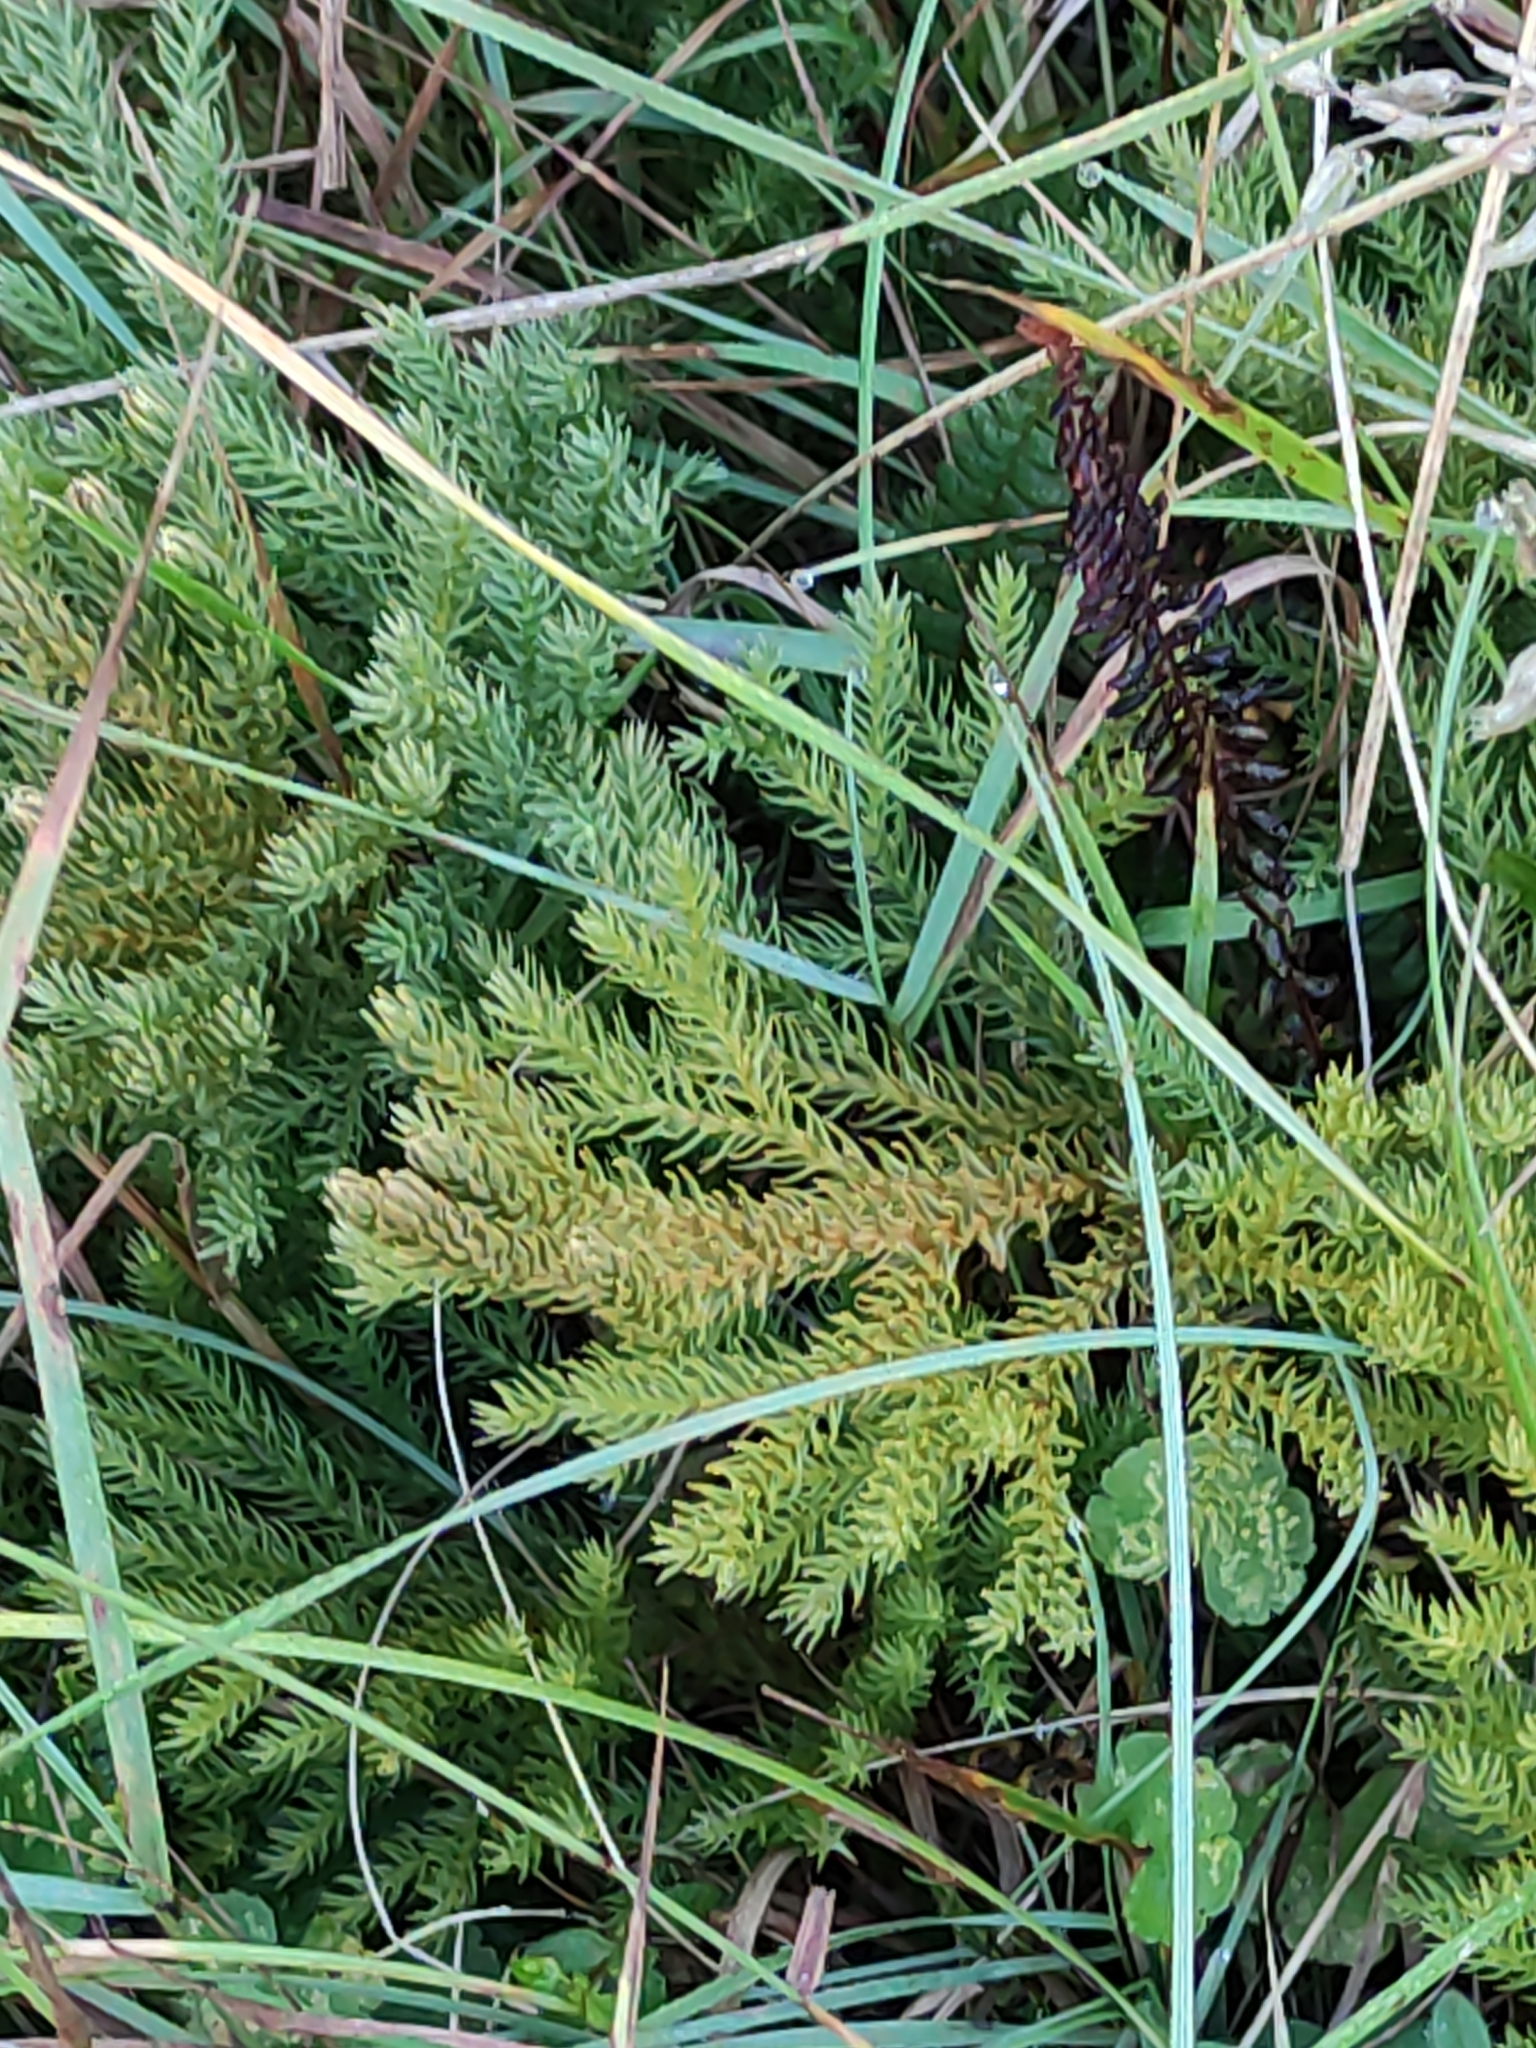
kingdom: Plantae
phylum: Tracheophyta
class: Lycopodiopsida
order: Lycopodiales
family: Lycopodiaceae
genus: Austrolycopodium
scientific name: Austrolycopodium fastigiatum
